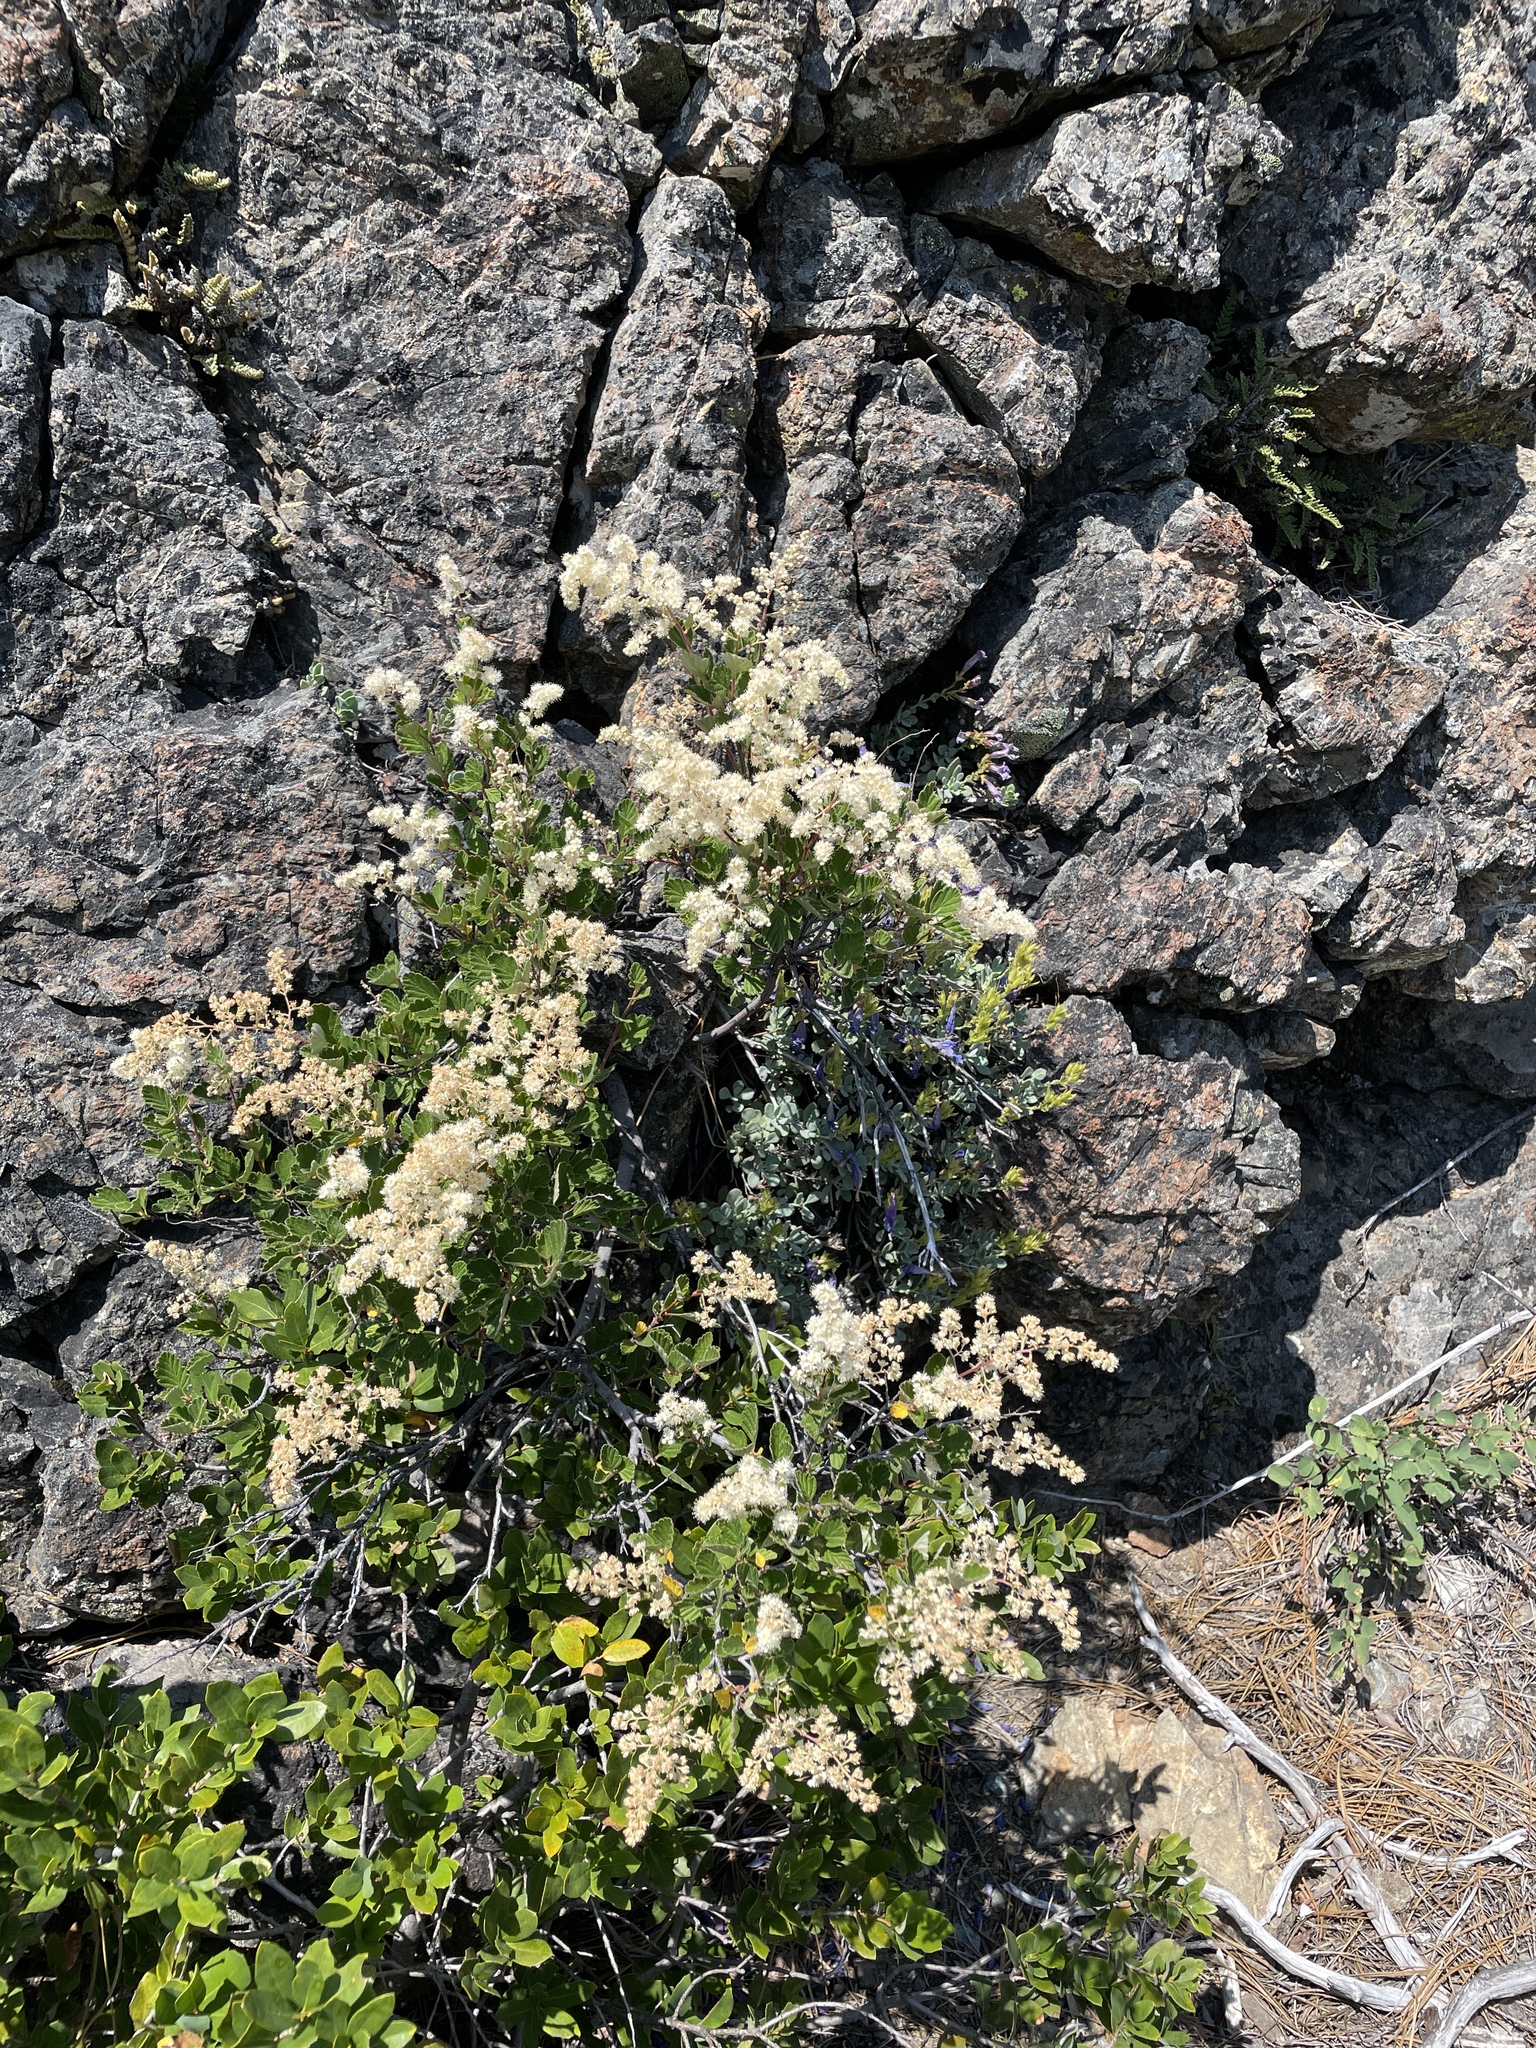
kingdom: Plantae
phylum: Tracheophyta
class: Magnoliopsida
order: Rosales
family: Rosaceae
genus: Holodiscus
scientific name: Holodiscus discolor
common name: Oceanspray
